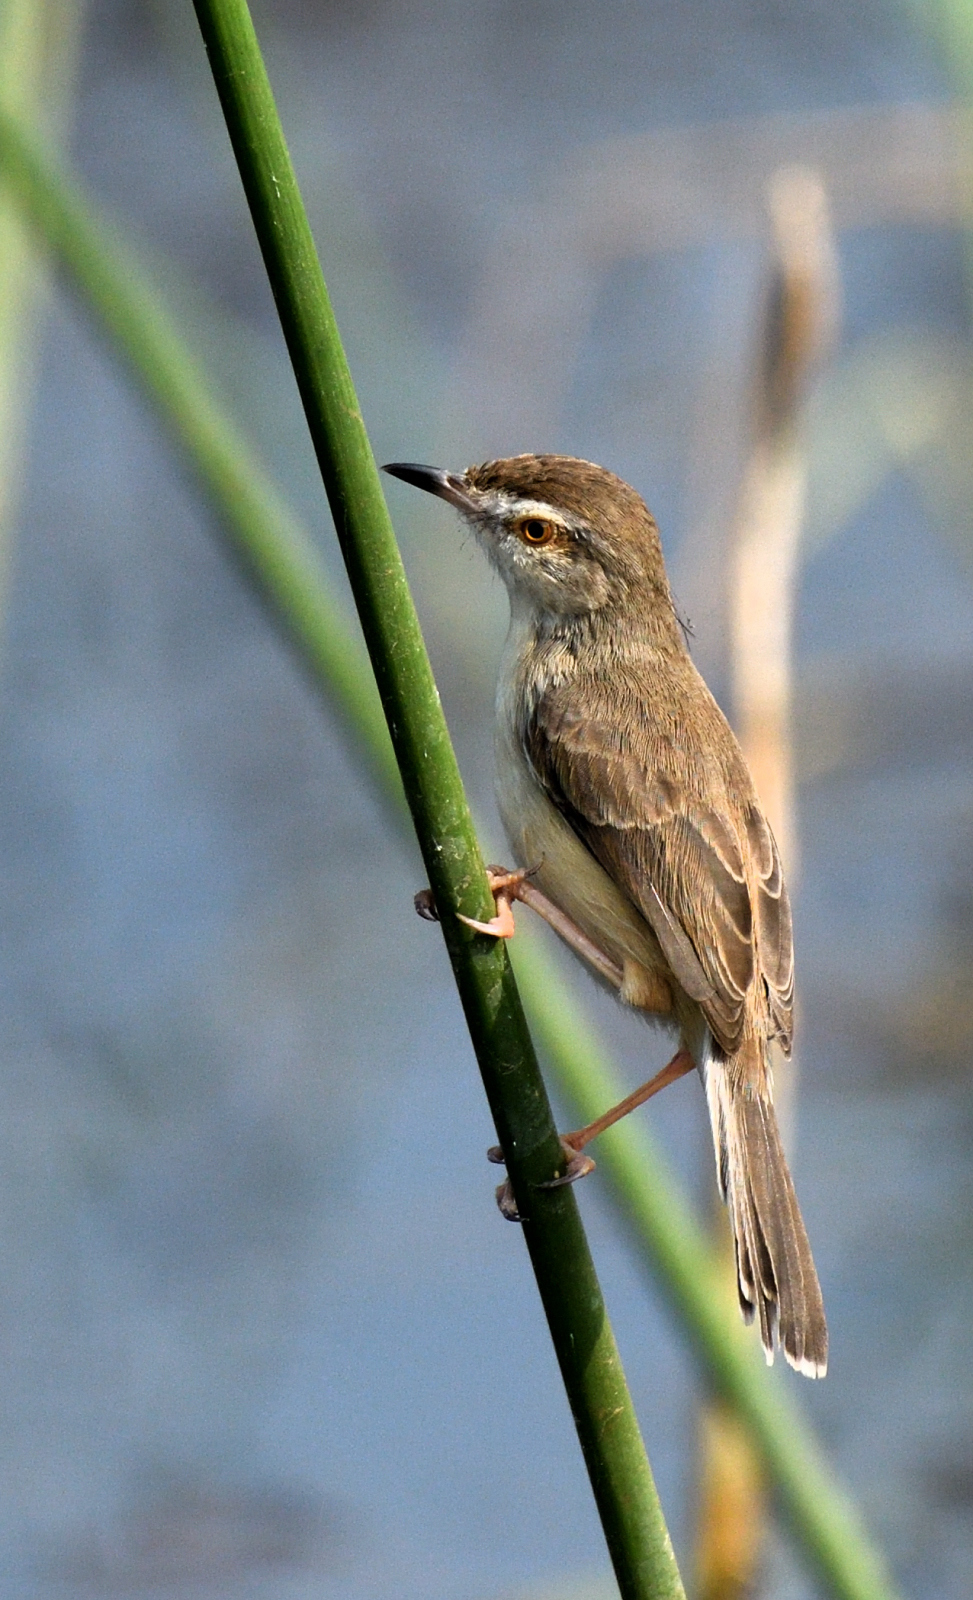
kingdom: Animalia
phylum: Chordata
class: Aves
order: Passeriformes
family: Cisticolidae
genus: Prinia
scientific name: Prinia inornata
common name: Plain prinia
